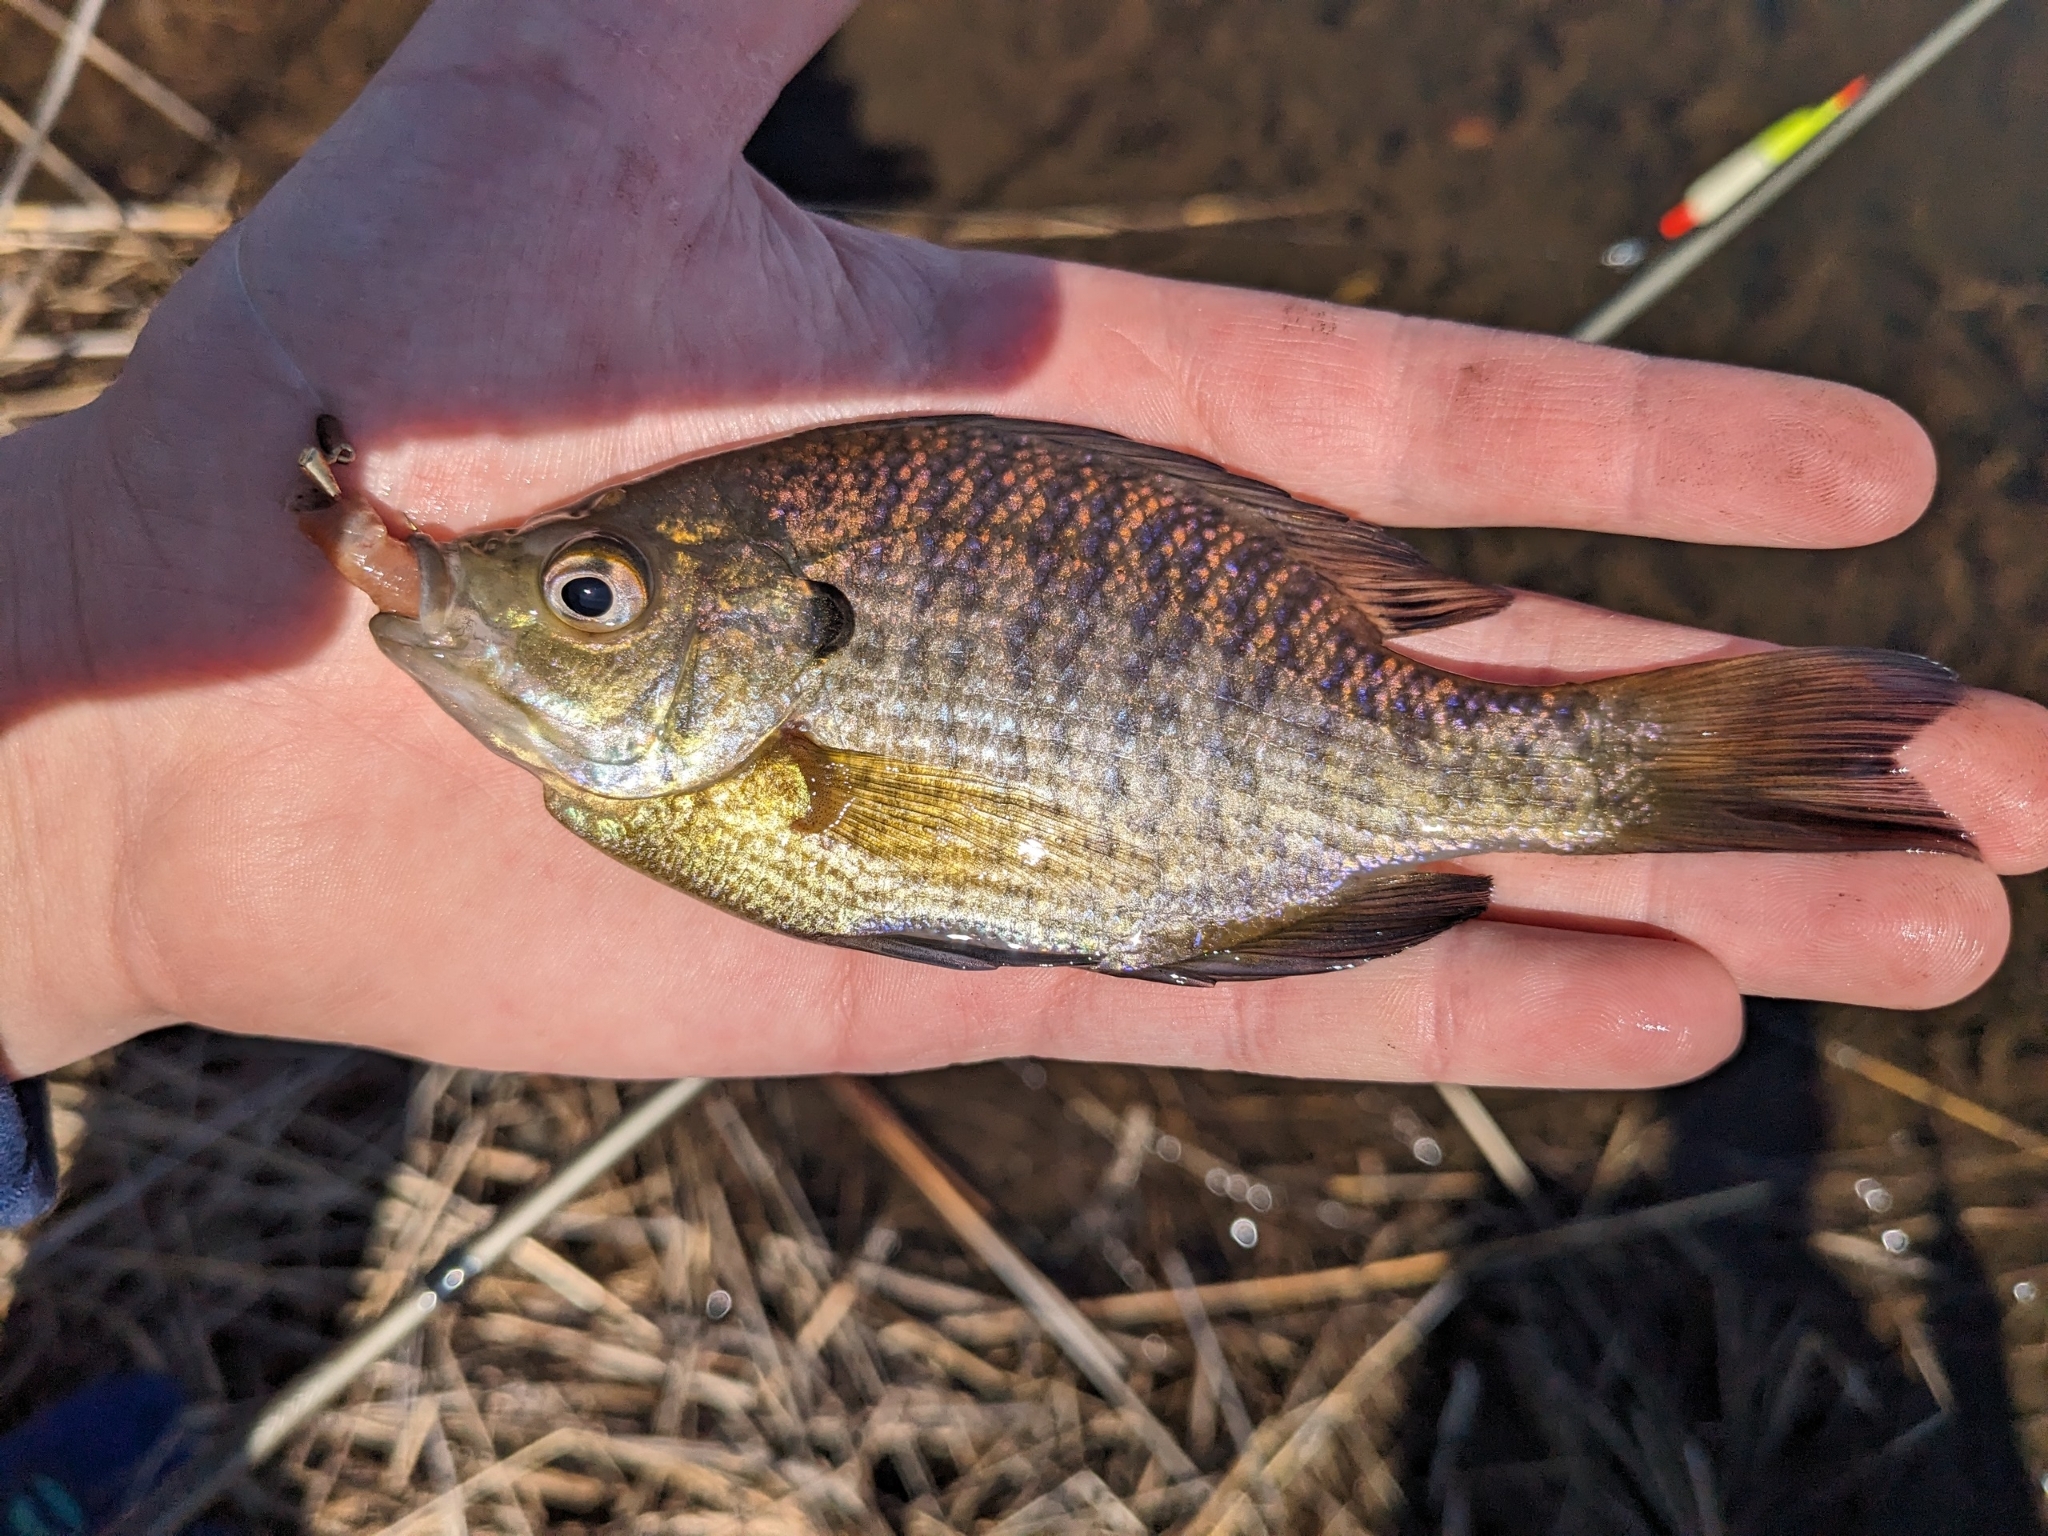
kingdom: Animalia
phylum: Chordata
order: Perciformes
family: Centrarchidae
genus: Lepomis
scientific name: Lepomis macrochirus
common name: Bluegill
